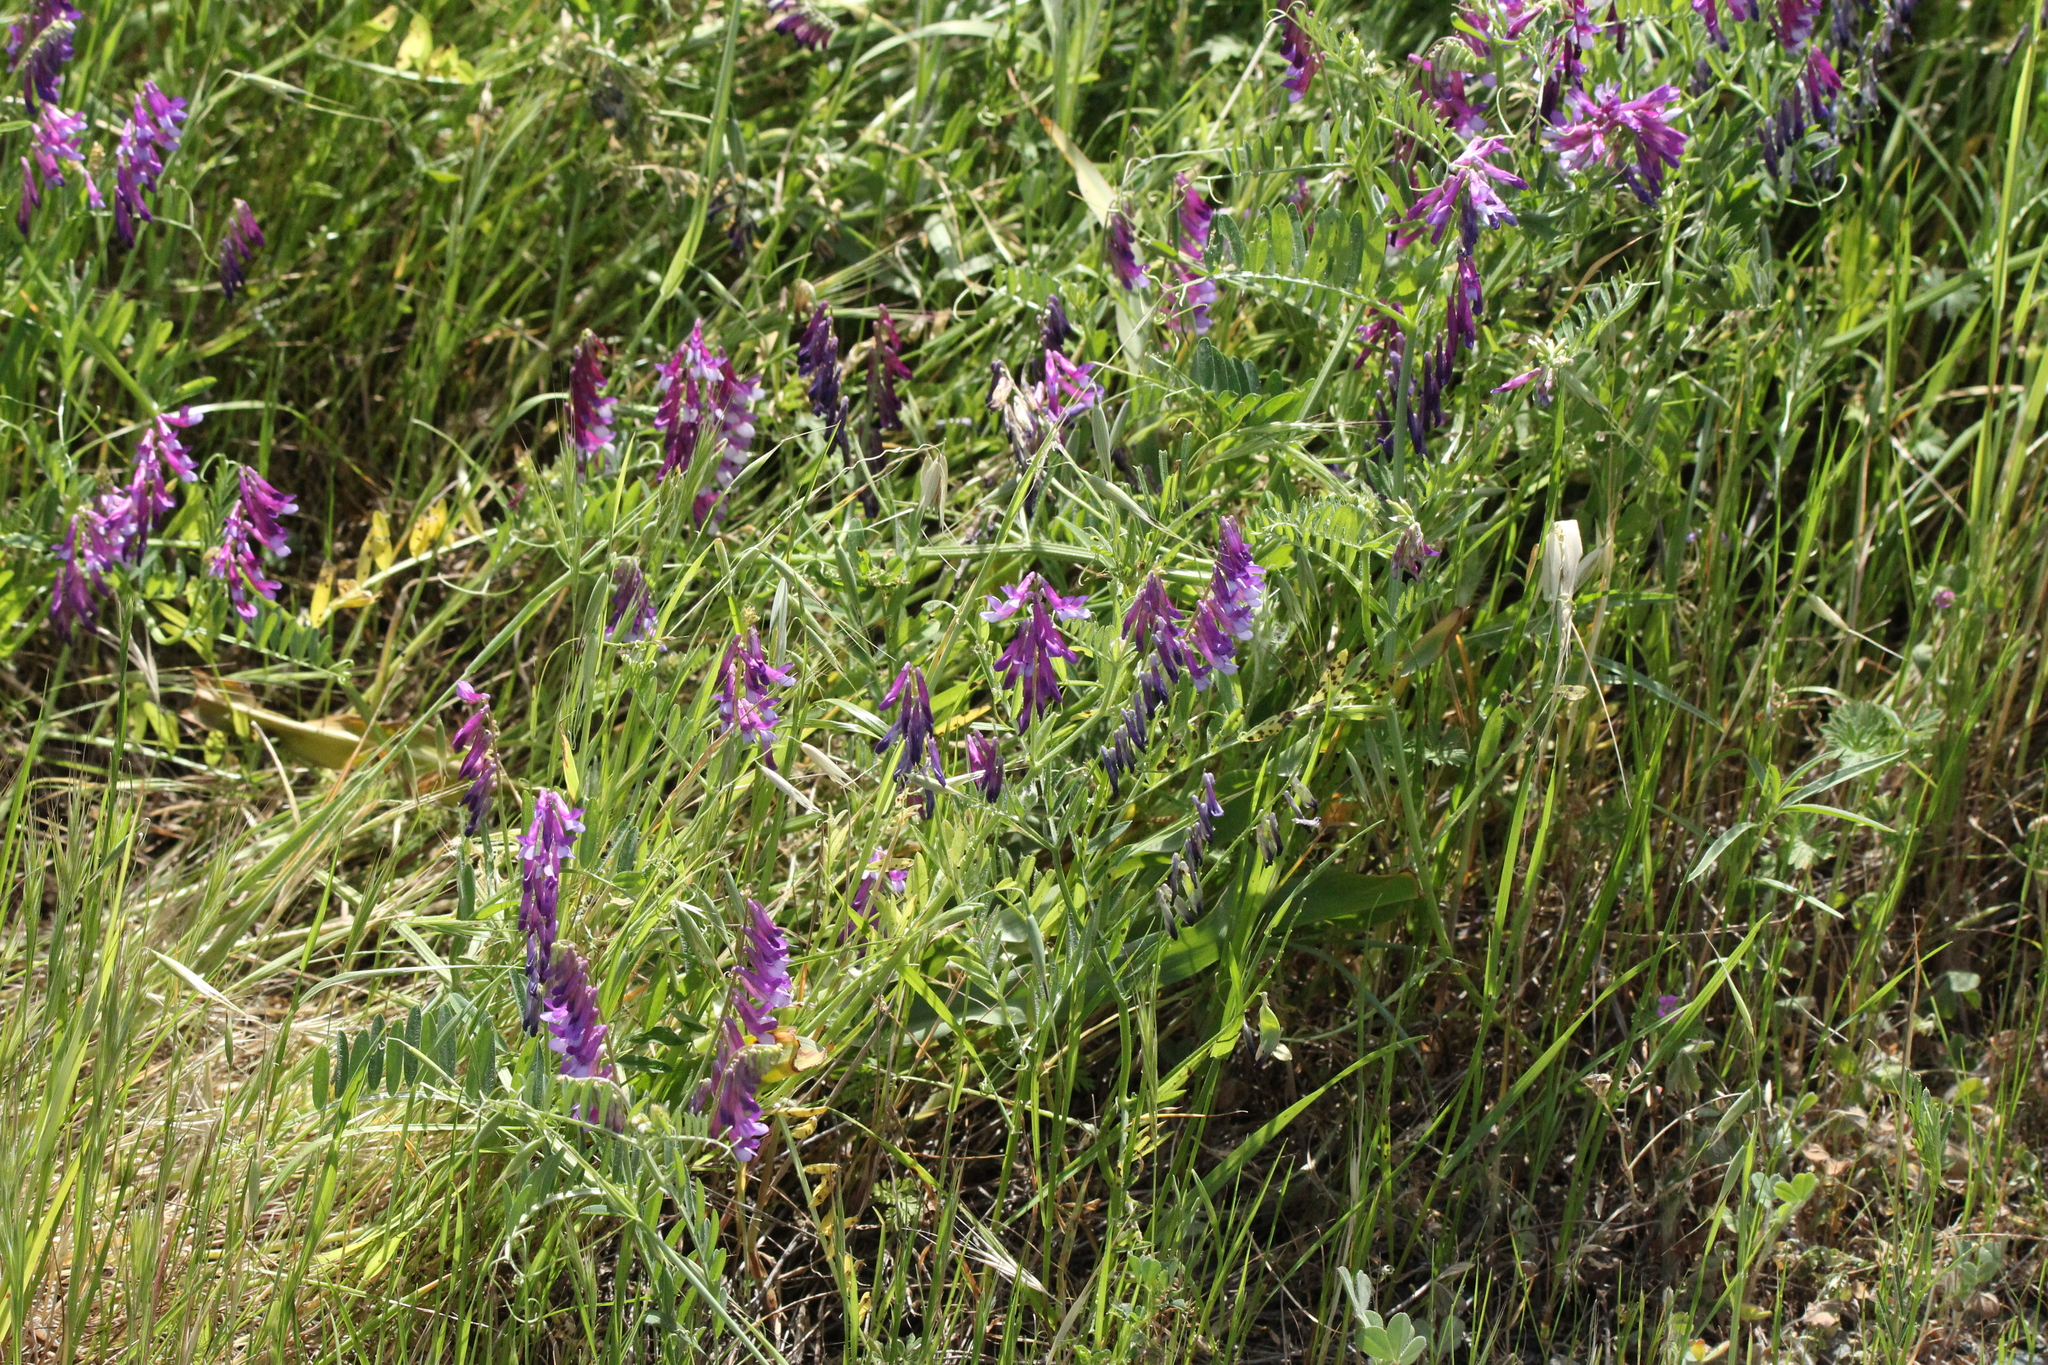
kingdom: Plantae
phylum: Tracheophyta
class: Magnoliopsida
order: Fabales
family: Fabaceae
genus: Vicia
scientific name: Vicia villosa
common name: Fodder vetch
